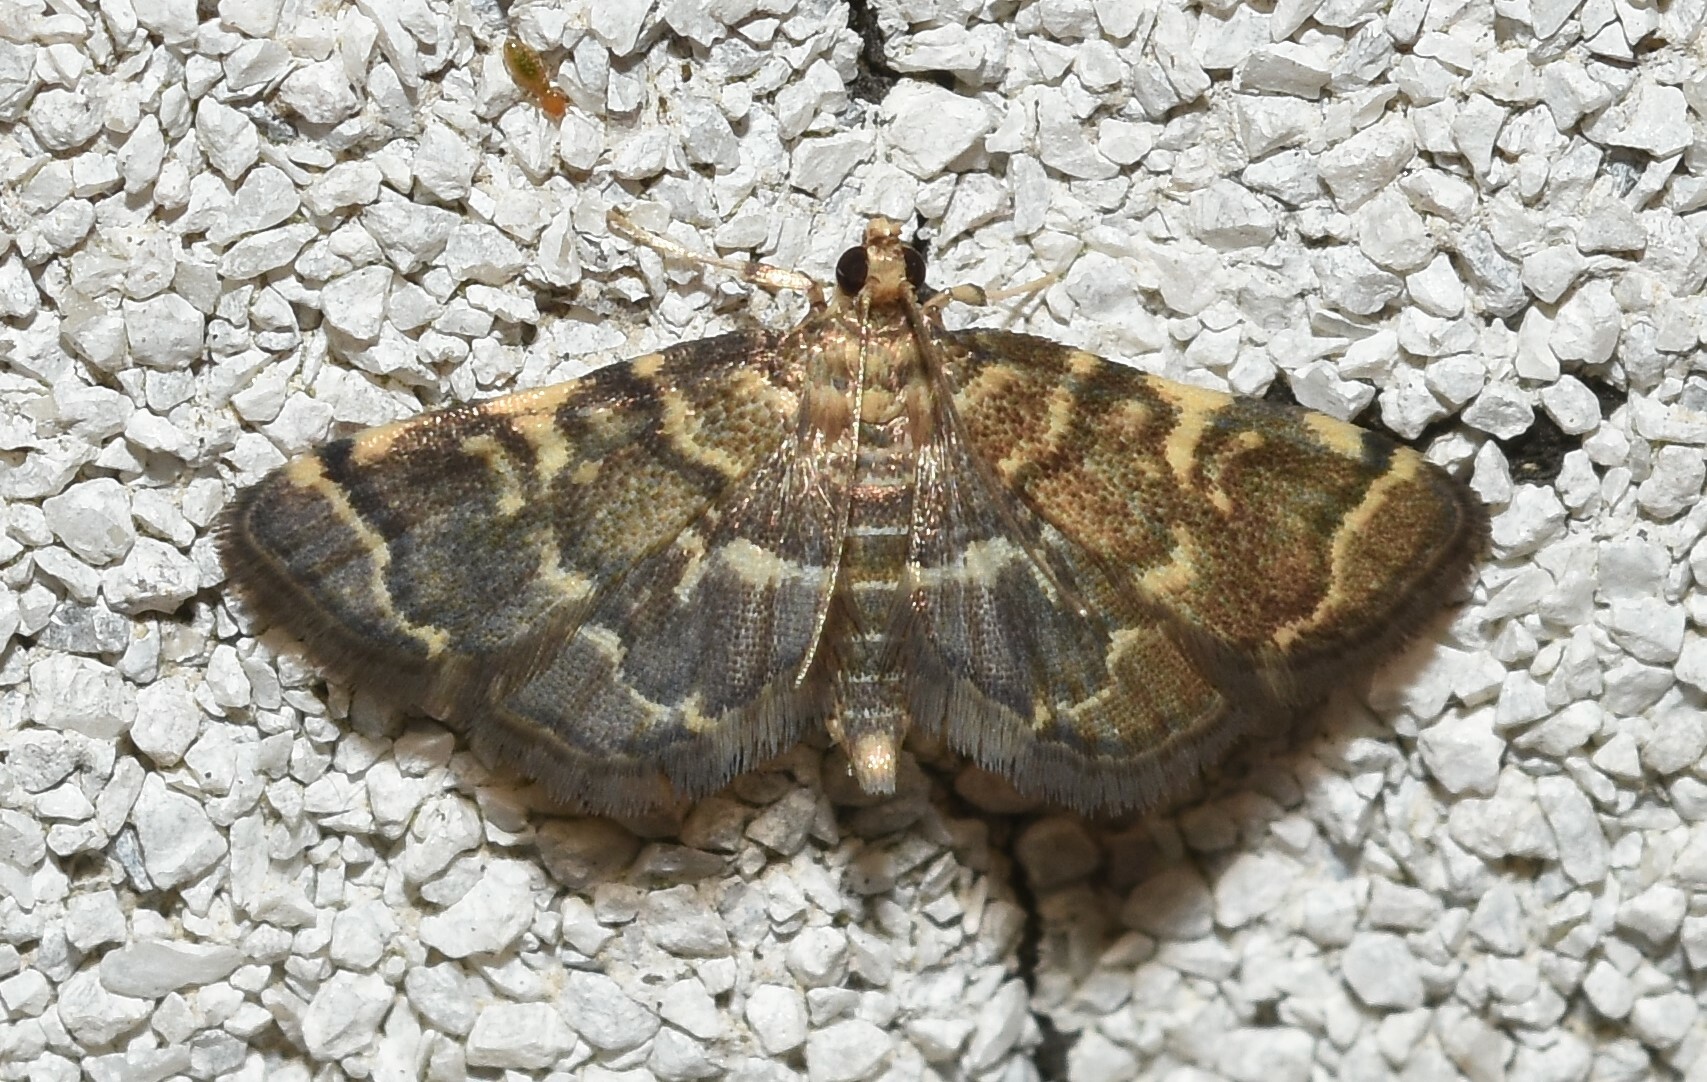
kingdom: Animalia
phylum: Arthropoda
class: Insecta
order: Lepidoptera
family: Crambidae
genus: Anageshna
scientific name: Anageshna primordialis
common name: Yellow-spotted webworm moth
